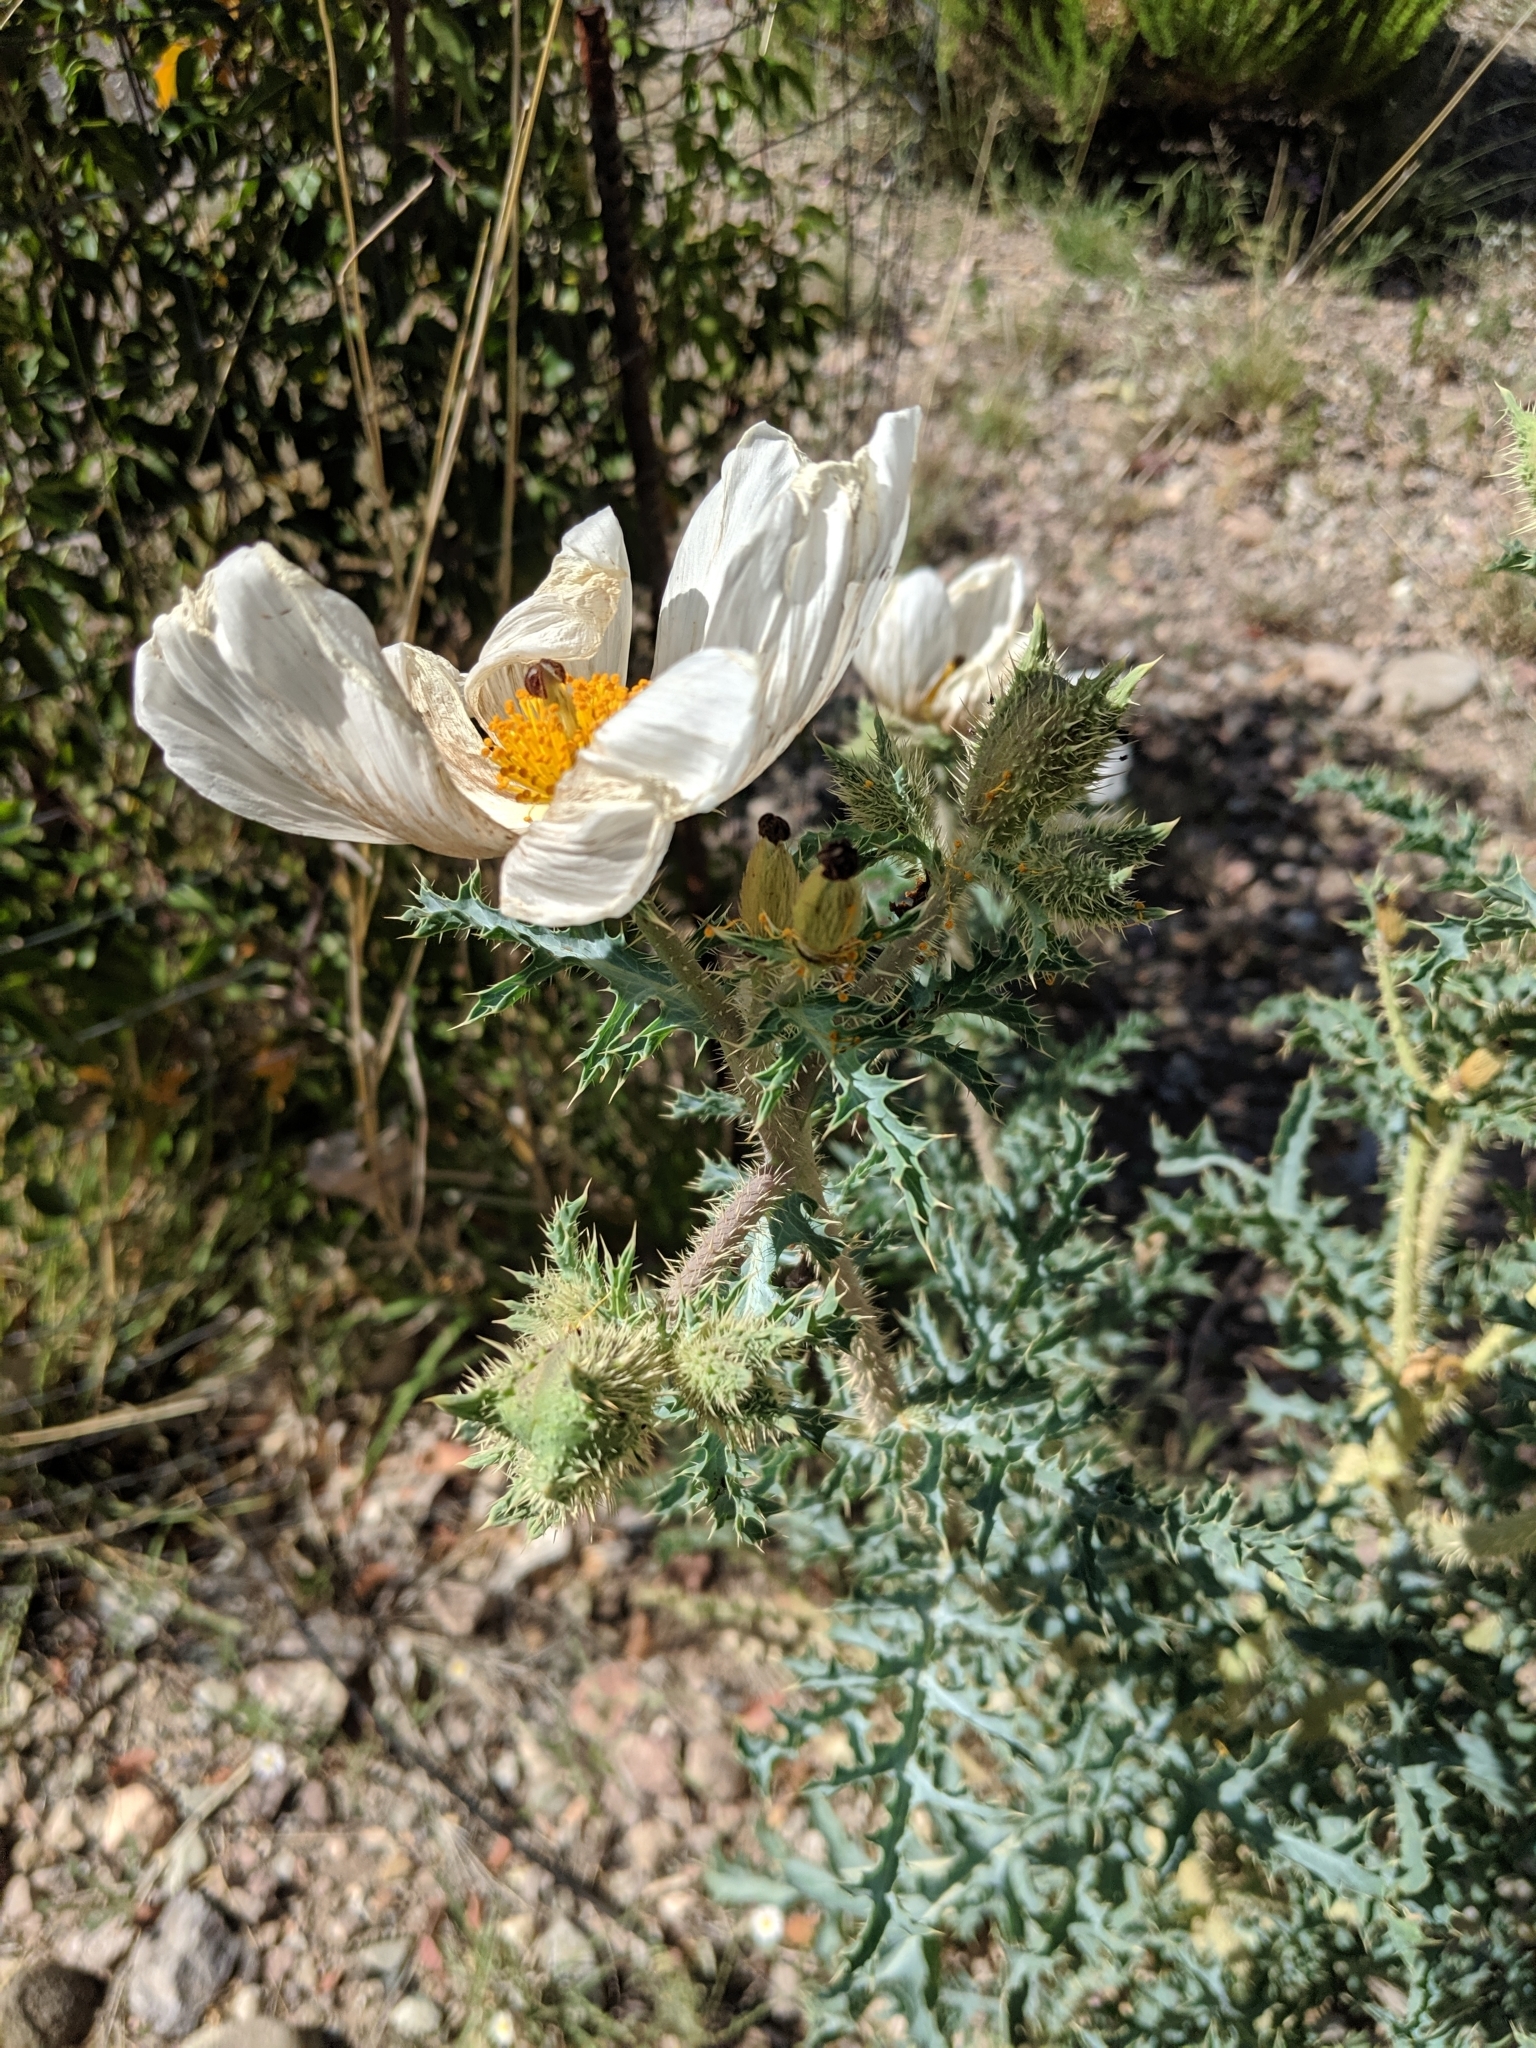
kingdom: Plantae
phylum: Tracheophyta
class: Magnoliopsida
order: Ranunculales
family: Papaveraceae
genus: Argemone
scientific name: Argemone pleiacantha
